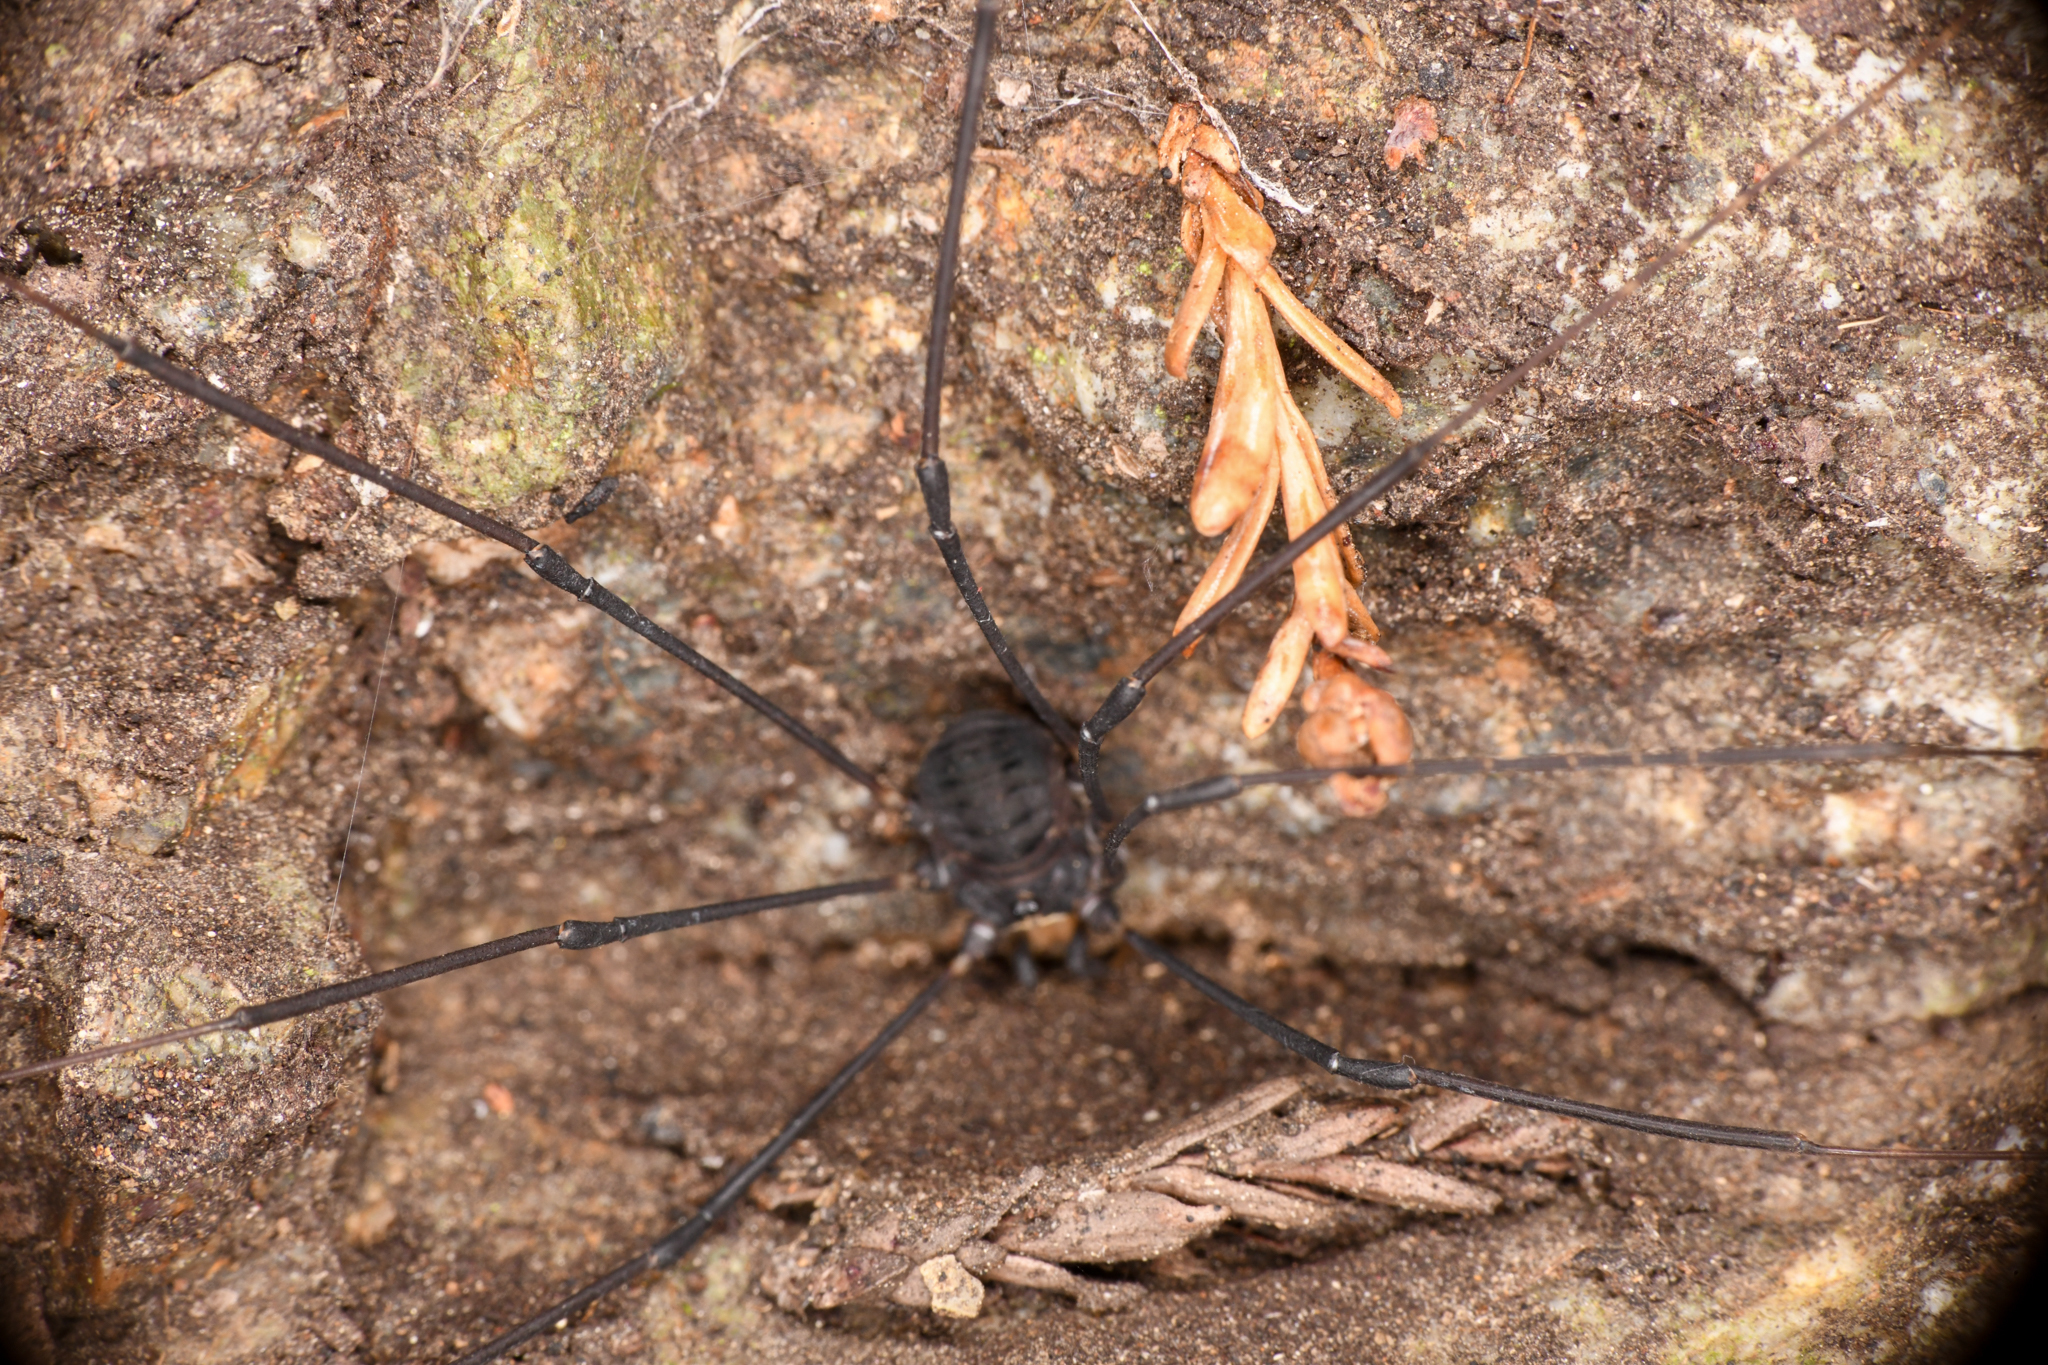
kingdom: Animalia
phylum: Arthropoda
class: Arachnida
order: Opiliones
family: Sclerosomatidae
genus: Leiobunum
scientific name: Leiobunum exilipes
